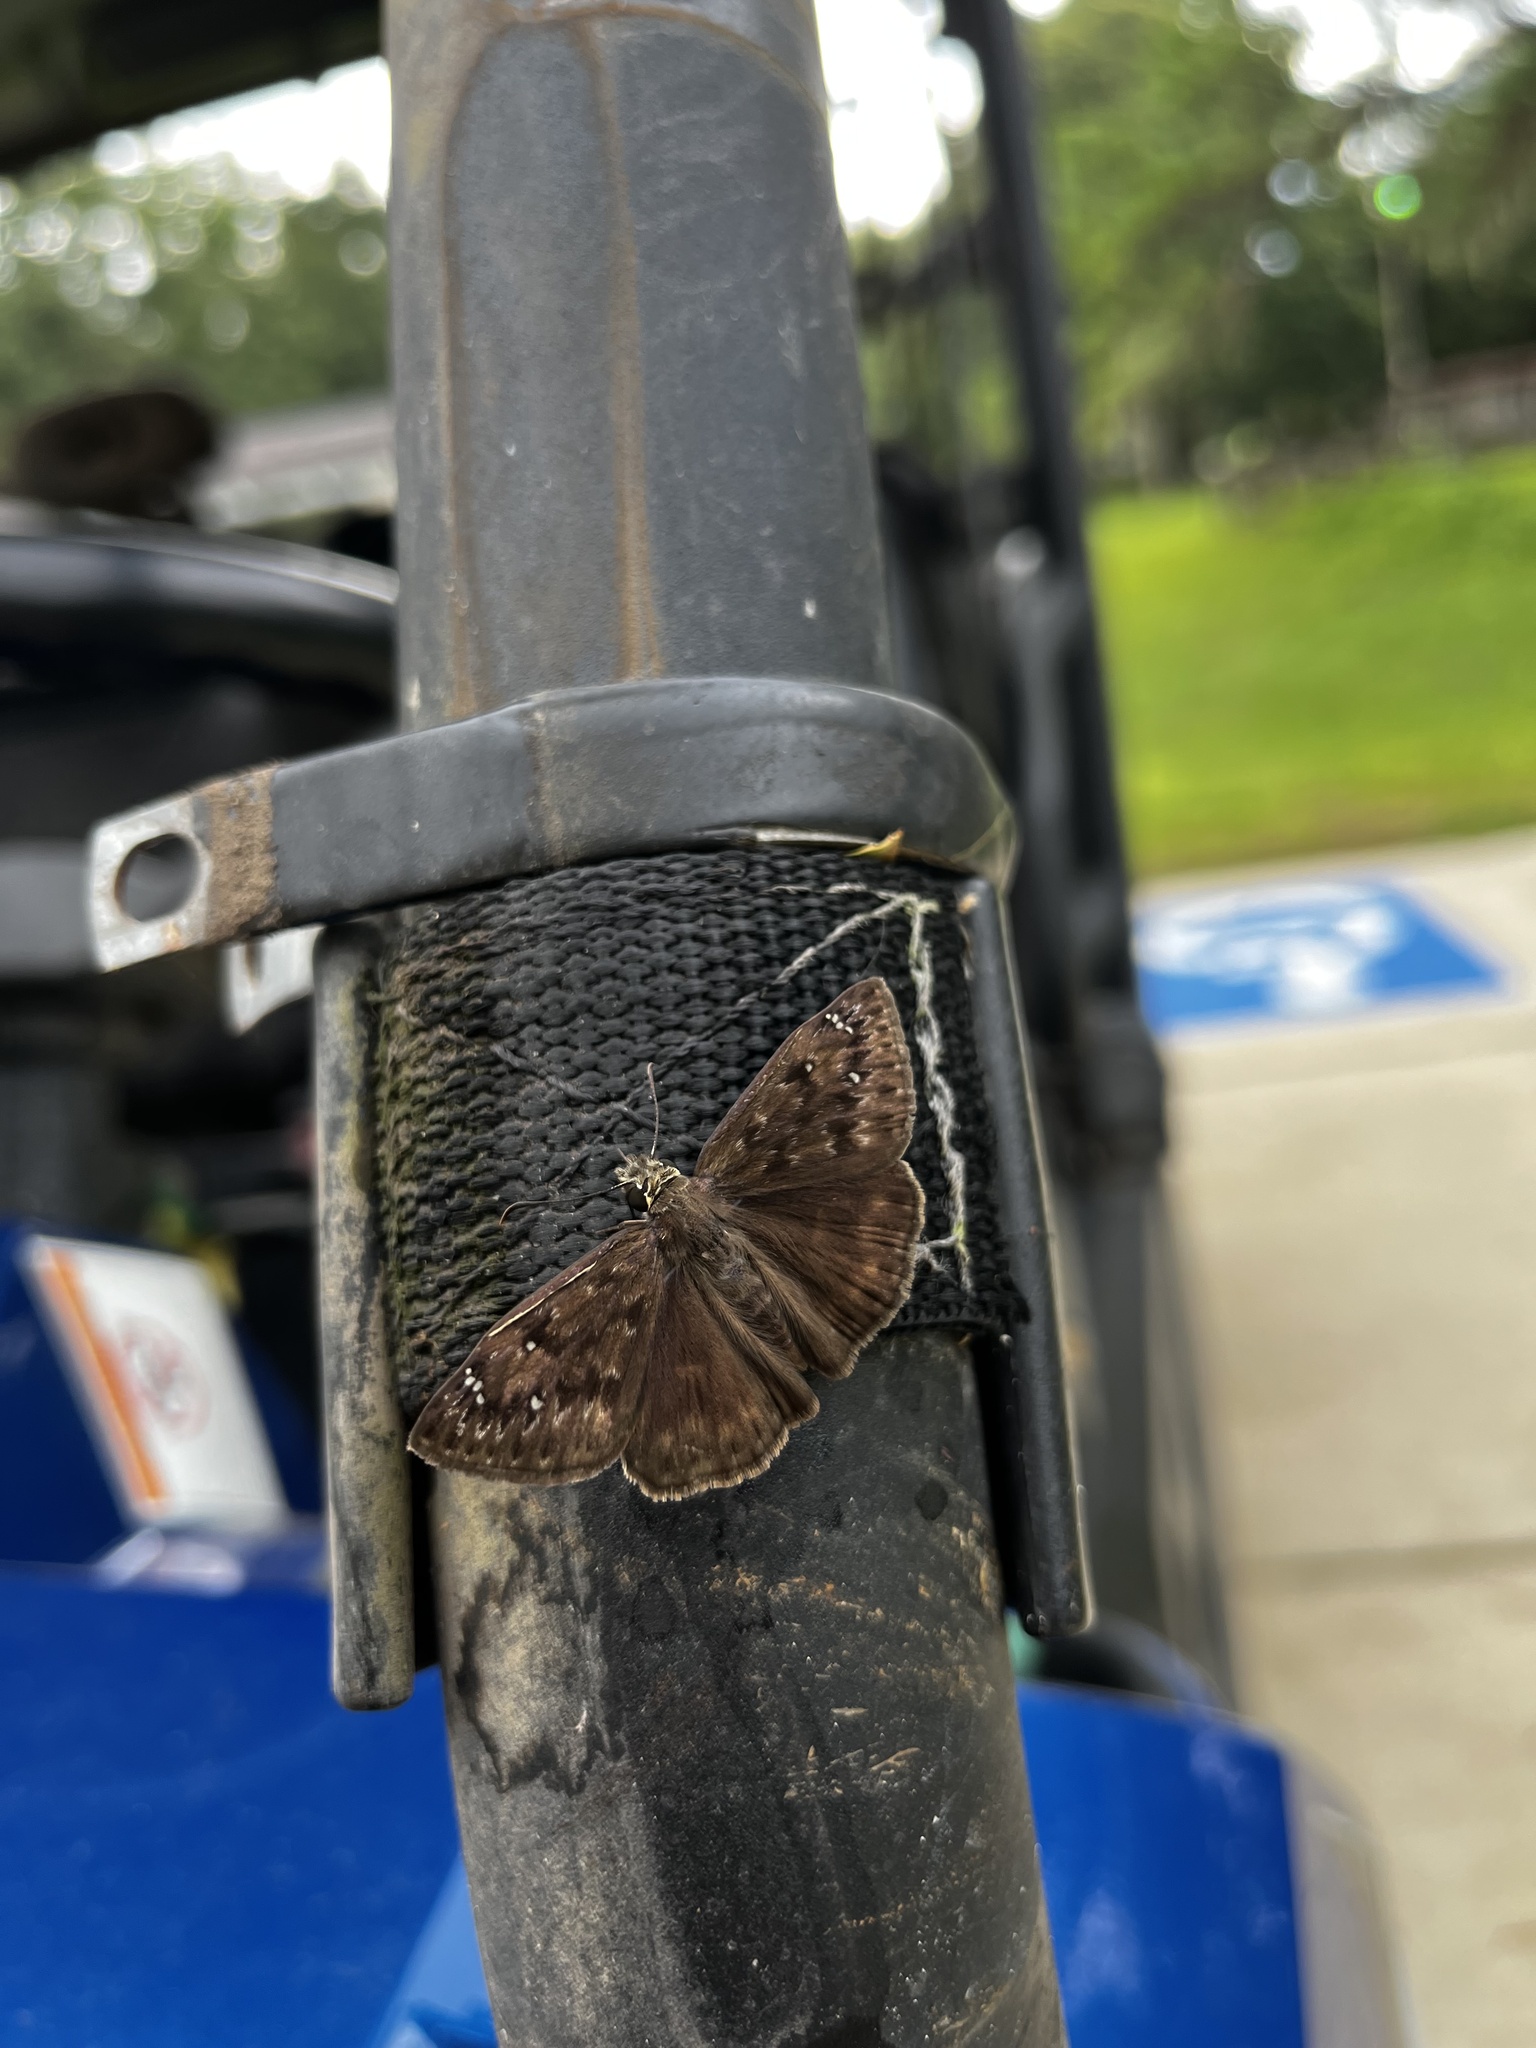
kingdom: Animalia
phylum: Arthropoda
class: Insecta
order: Lepidoptera
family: Hesperiidae
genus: Erynnis
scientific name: Erynnis horatius
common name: Horace's duskywing
